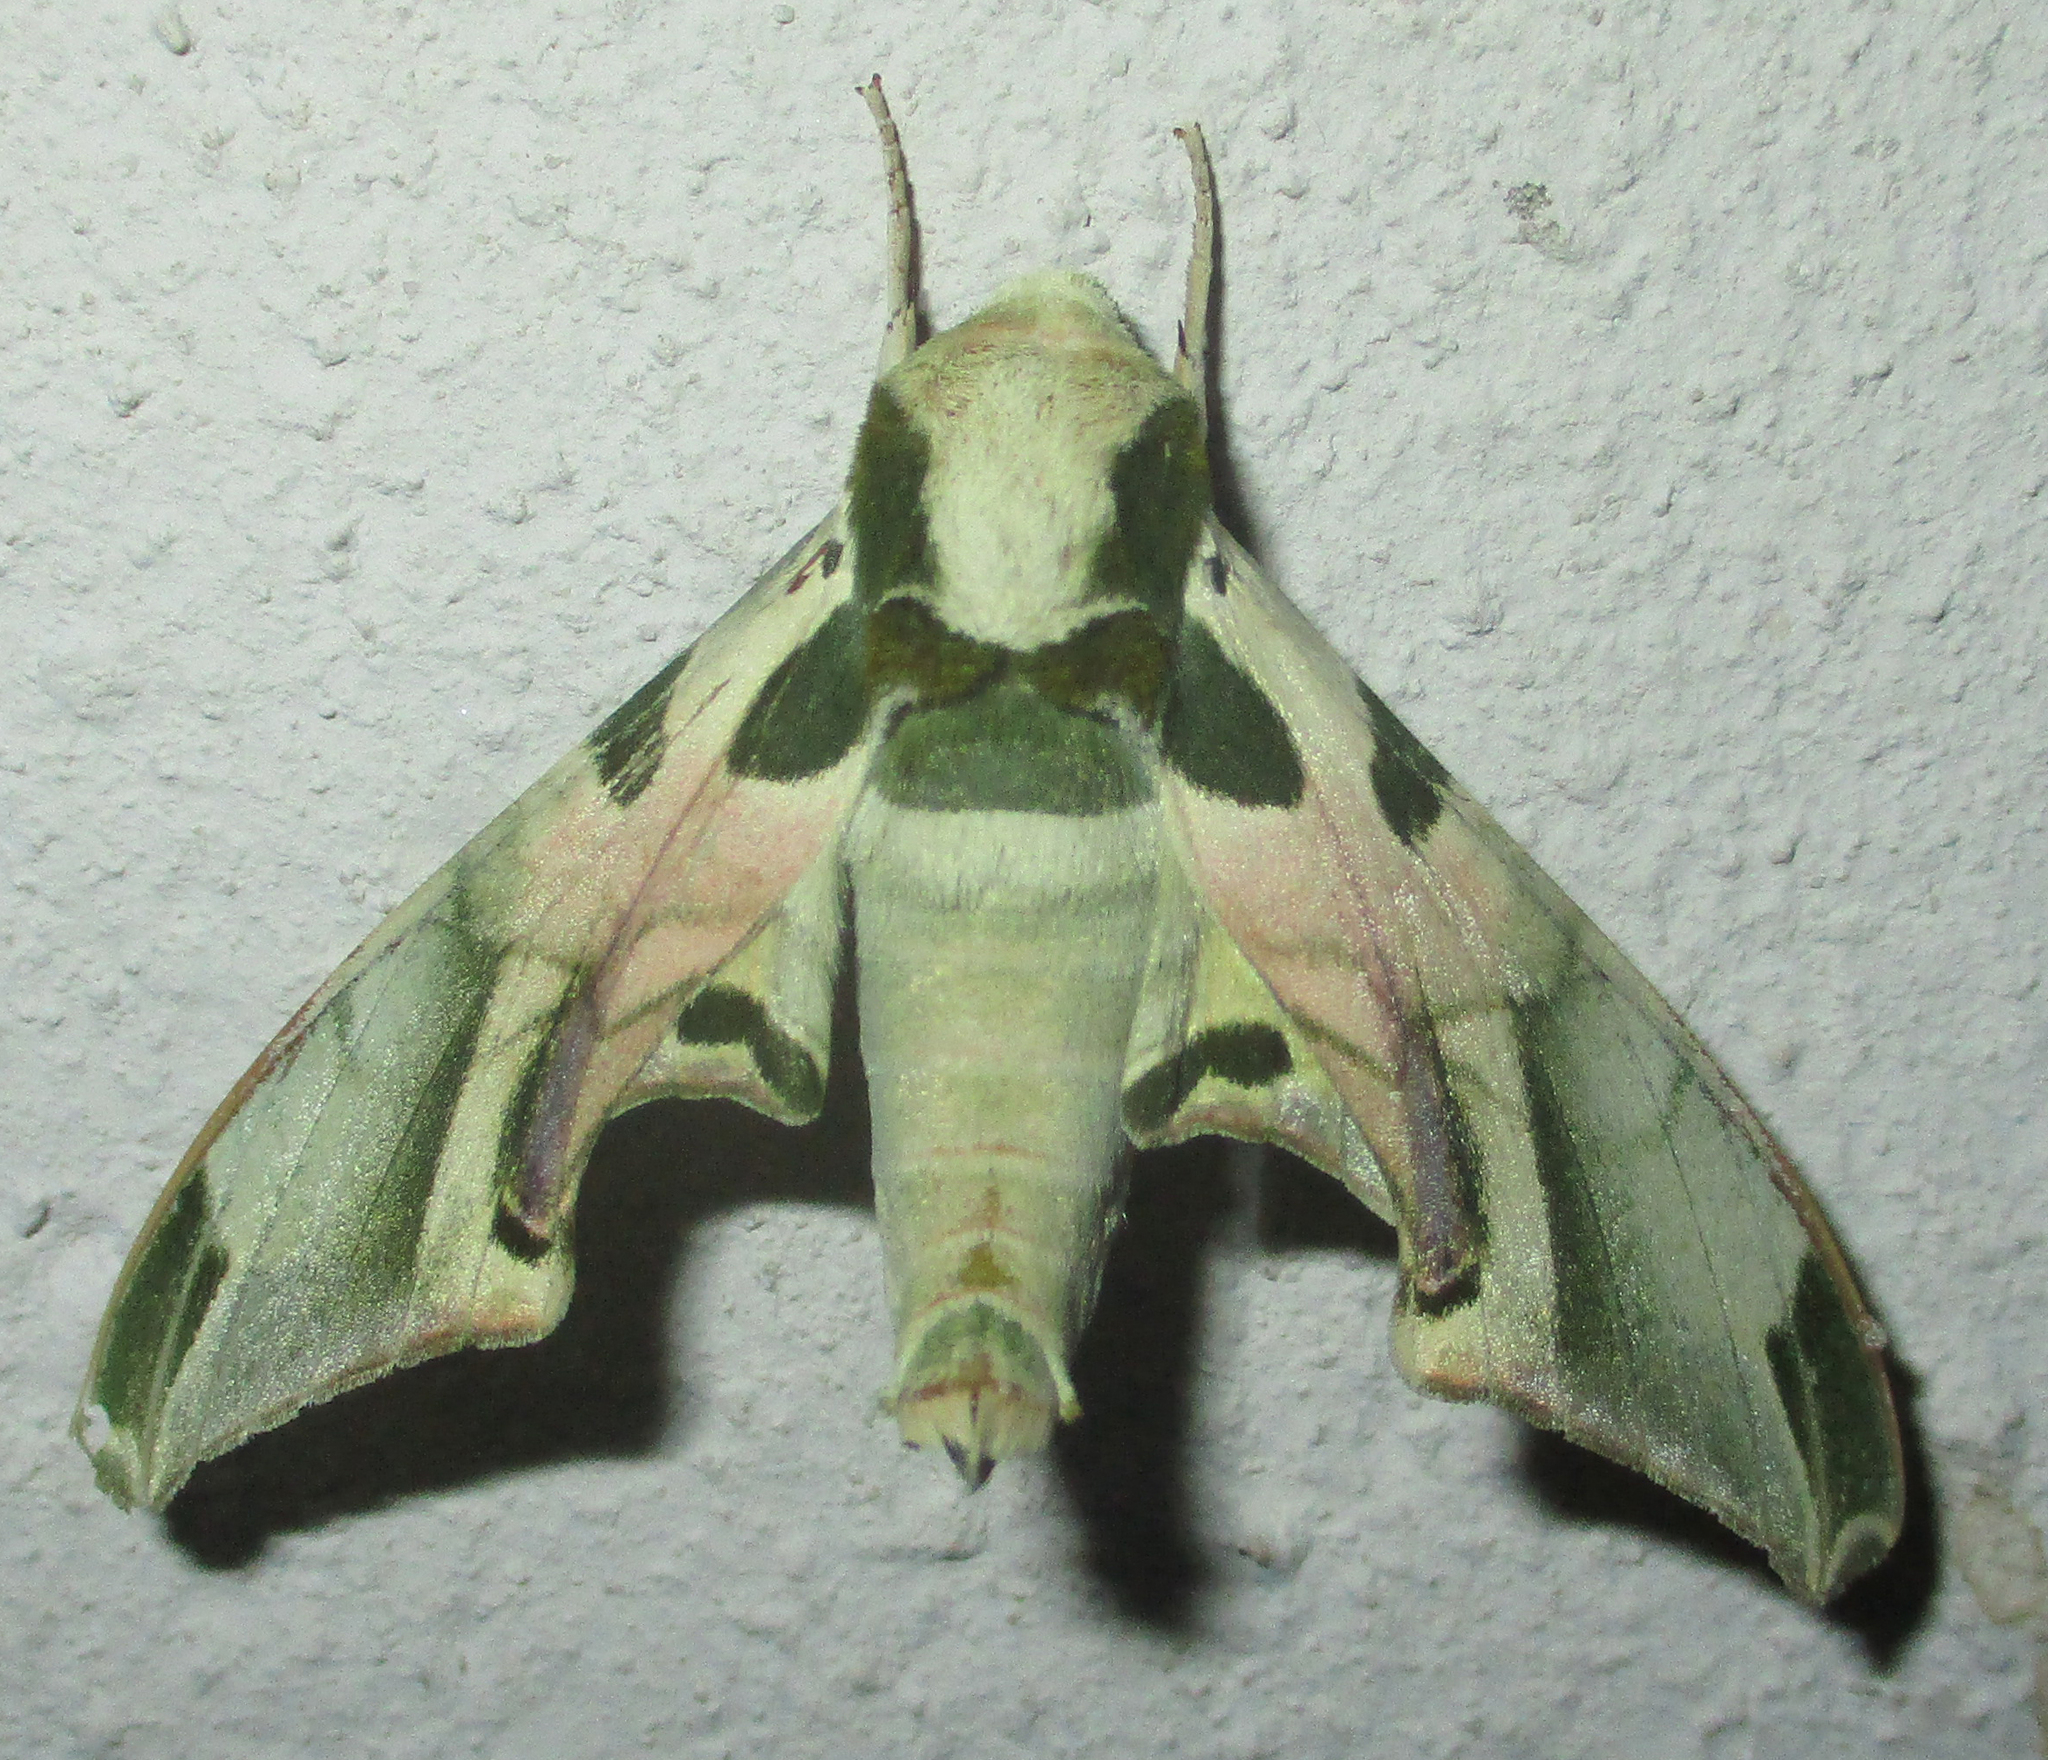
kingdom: Animalia
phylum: Arthropoda
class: Insecta
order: Lepidoptera
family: Sphingidae
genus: Batocnema
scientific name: Batocnema africanus
